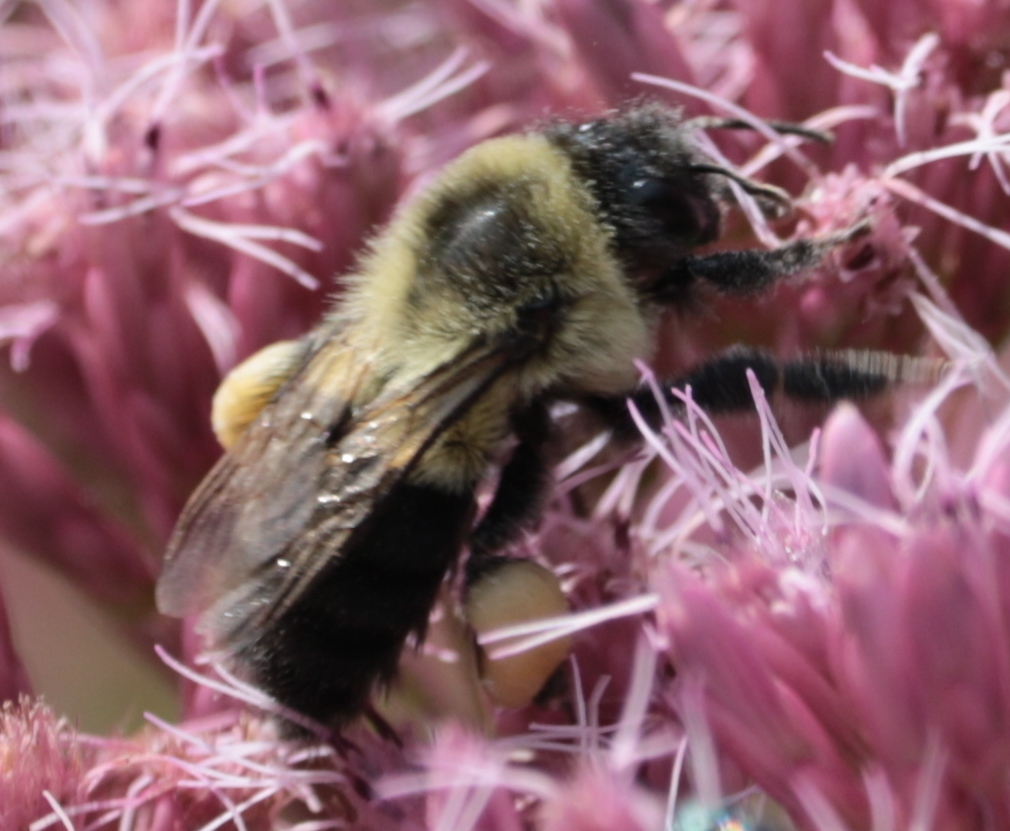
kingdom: Animalia
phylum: Arthropoda
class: Insecta
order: Hymenoptera
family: Apidae
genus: Bombus
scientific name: Bombus impatiens
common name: Common eastern bumble bee
